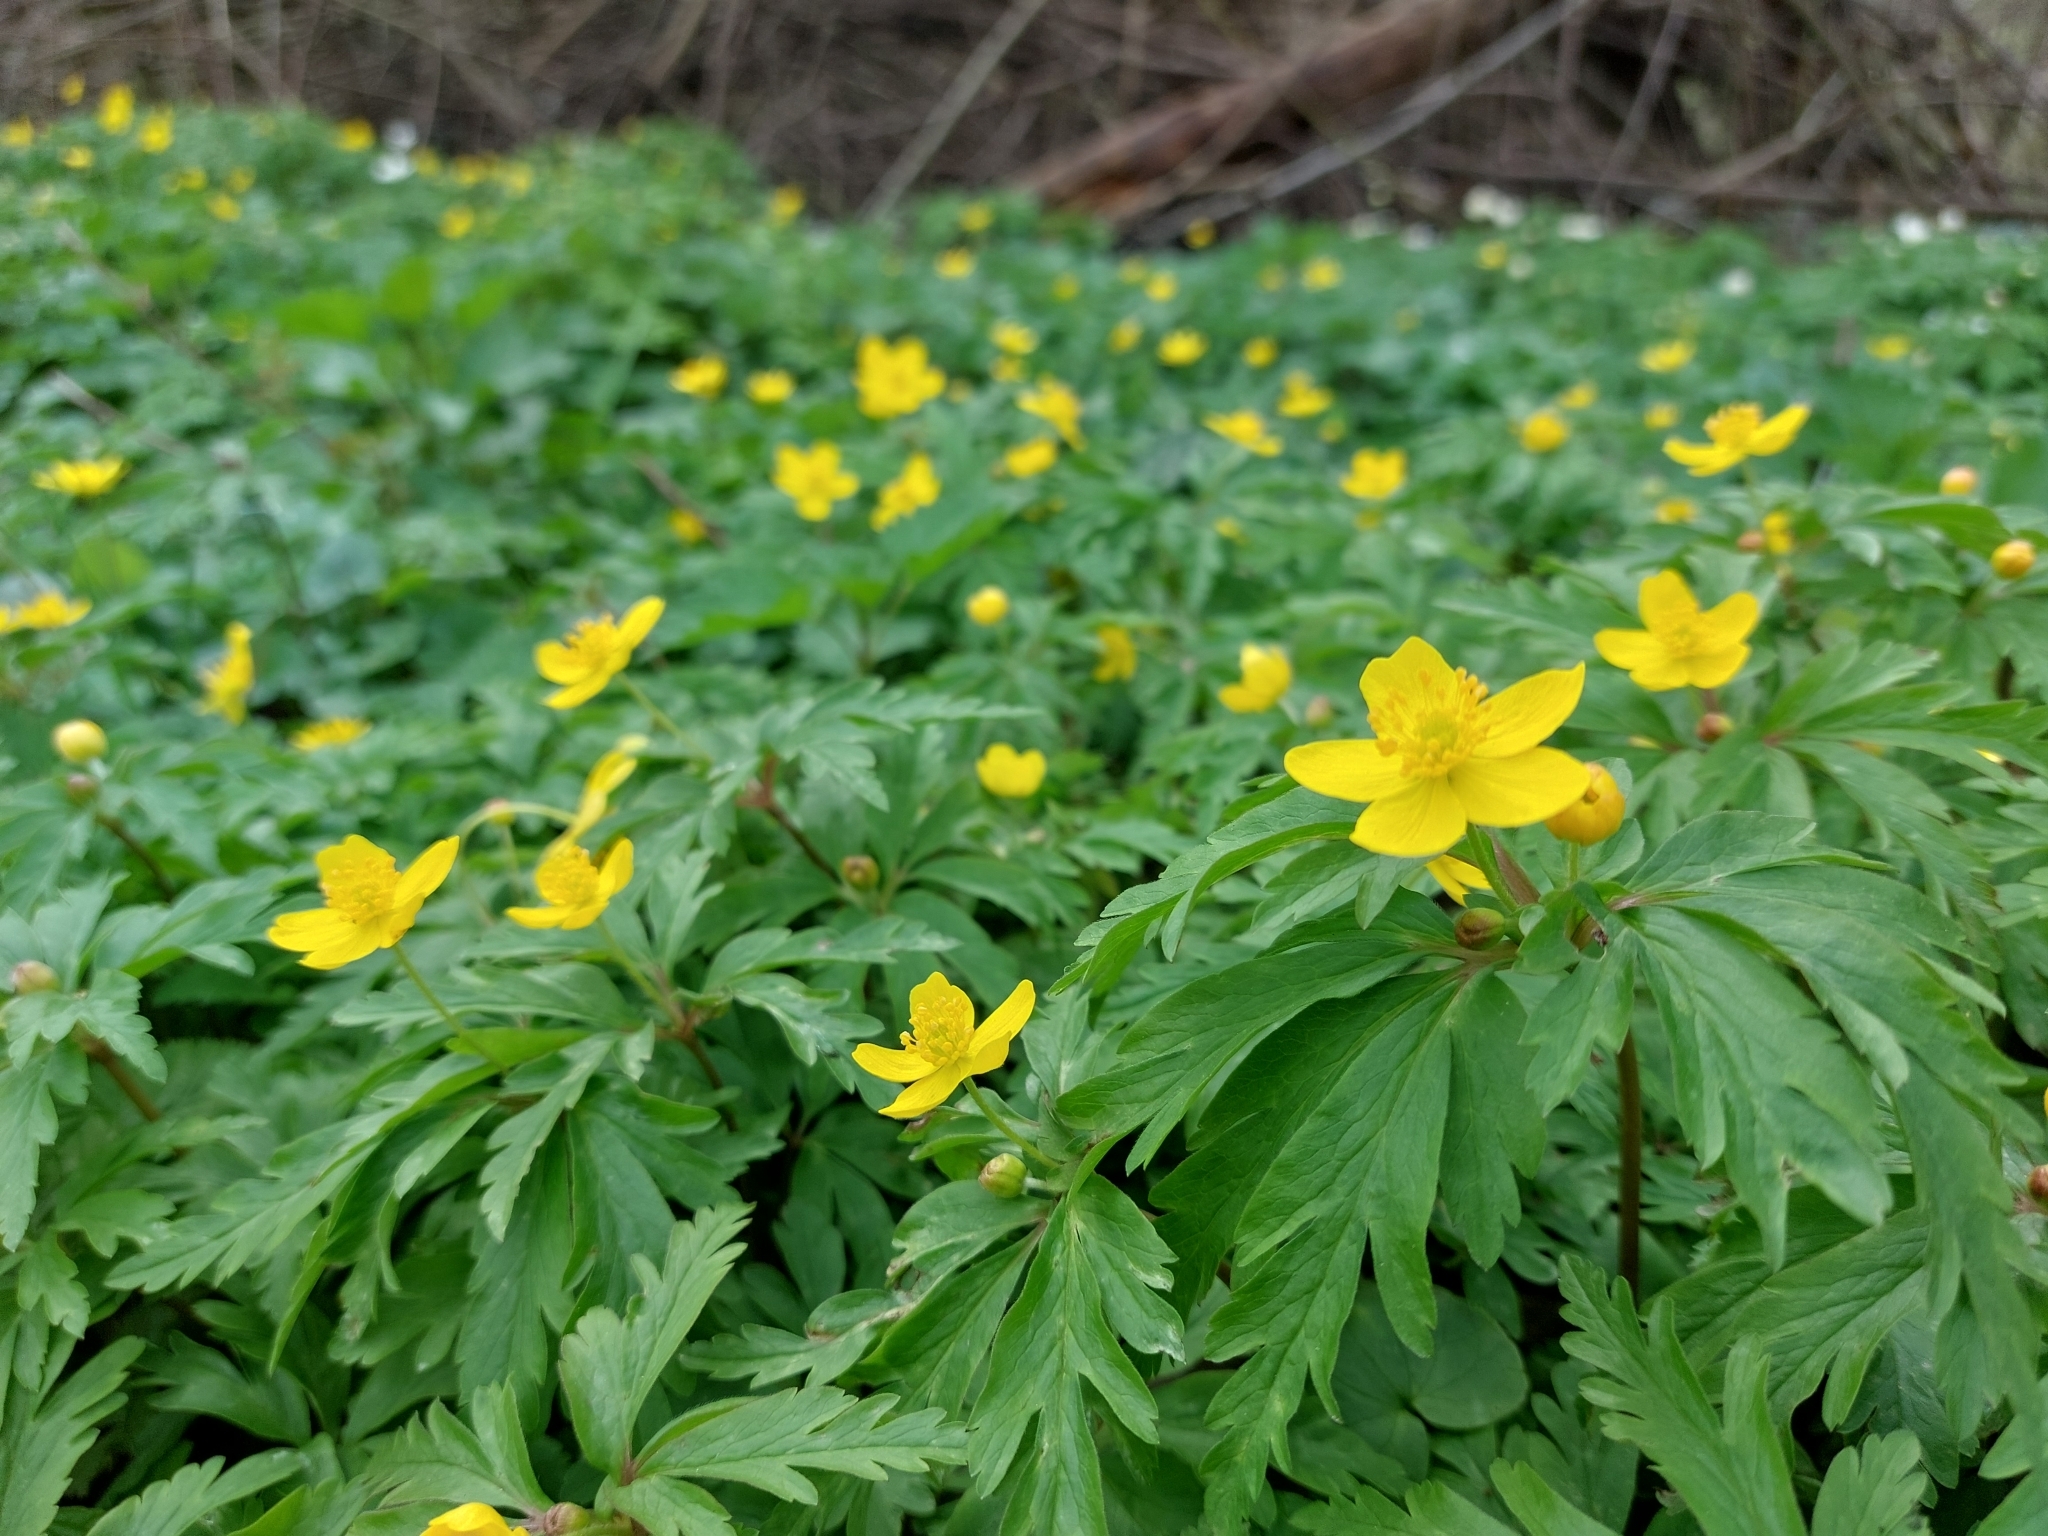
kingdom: Plantae
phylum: Tracheophyta
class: Magnoliopsida
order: Ranunculales
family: Ranunculaceae
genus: Anemone
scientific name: Anemone ranunculoides
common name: Yellow anemone
